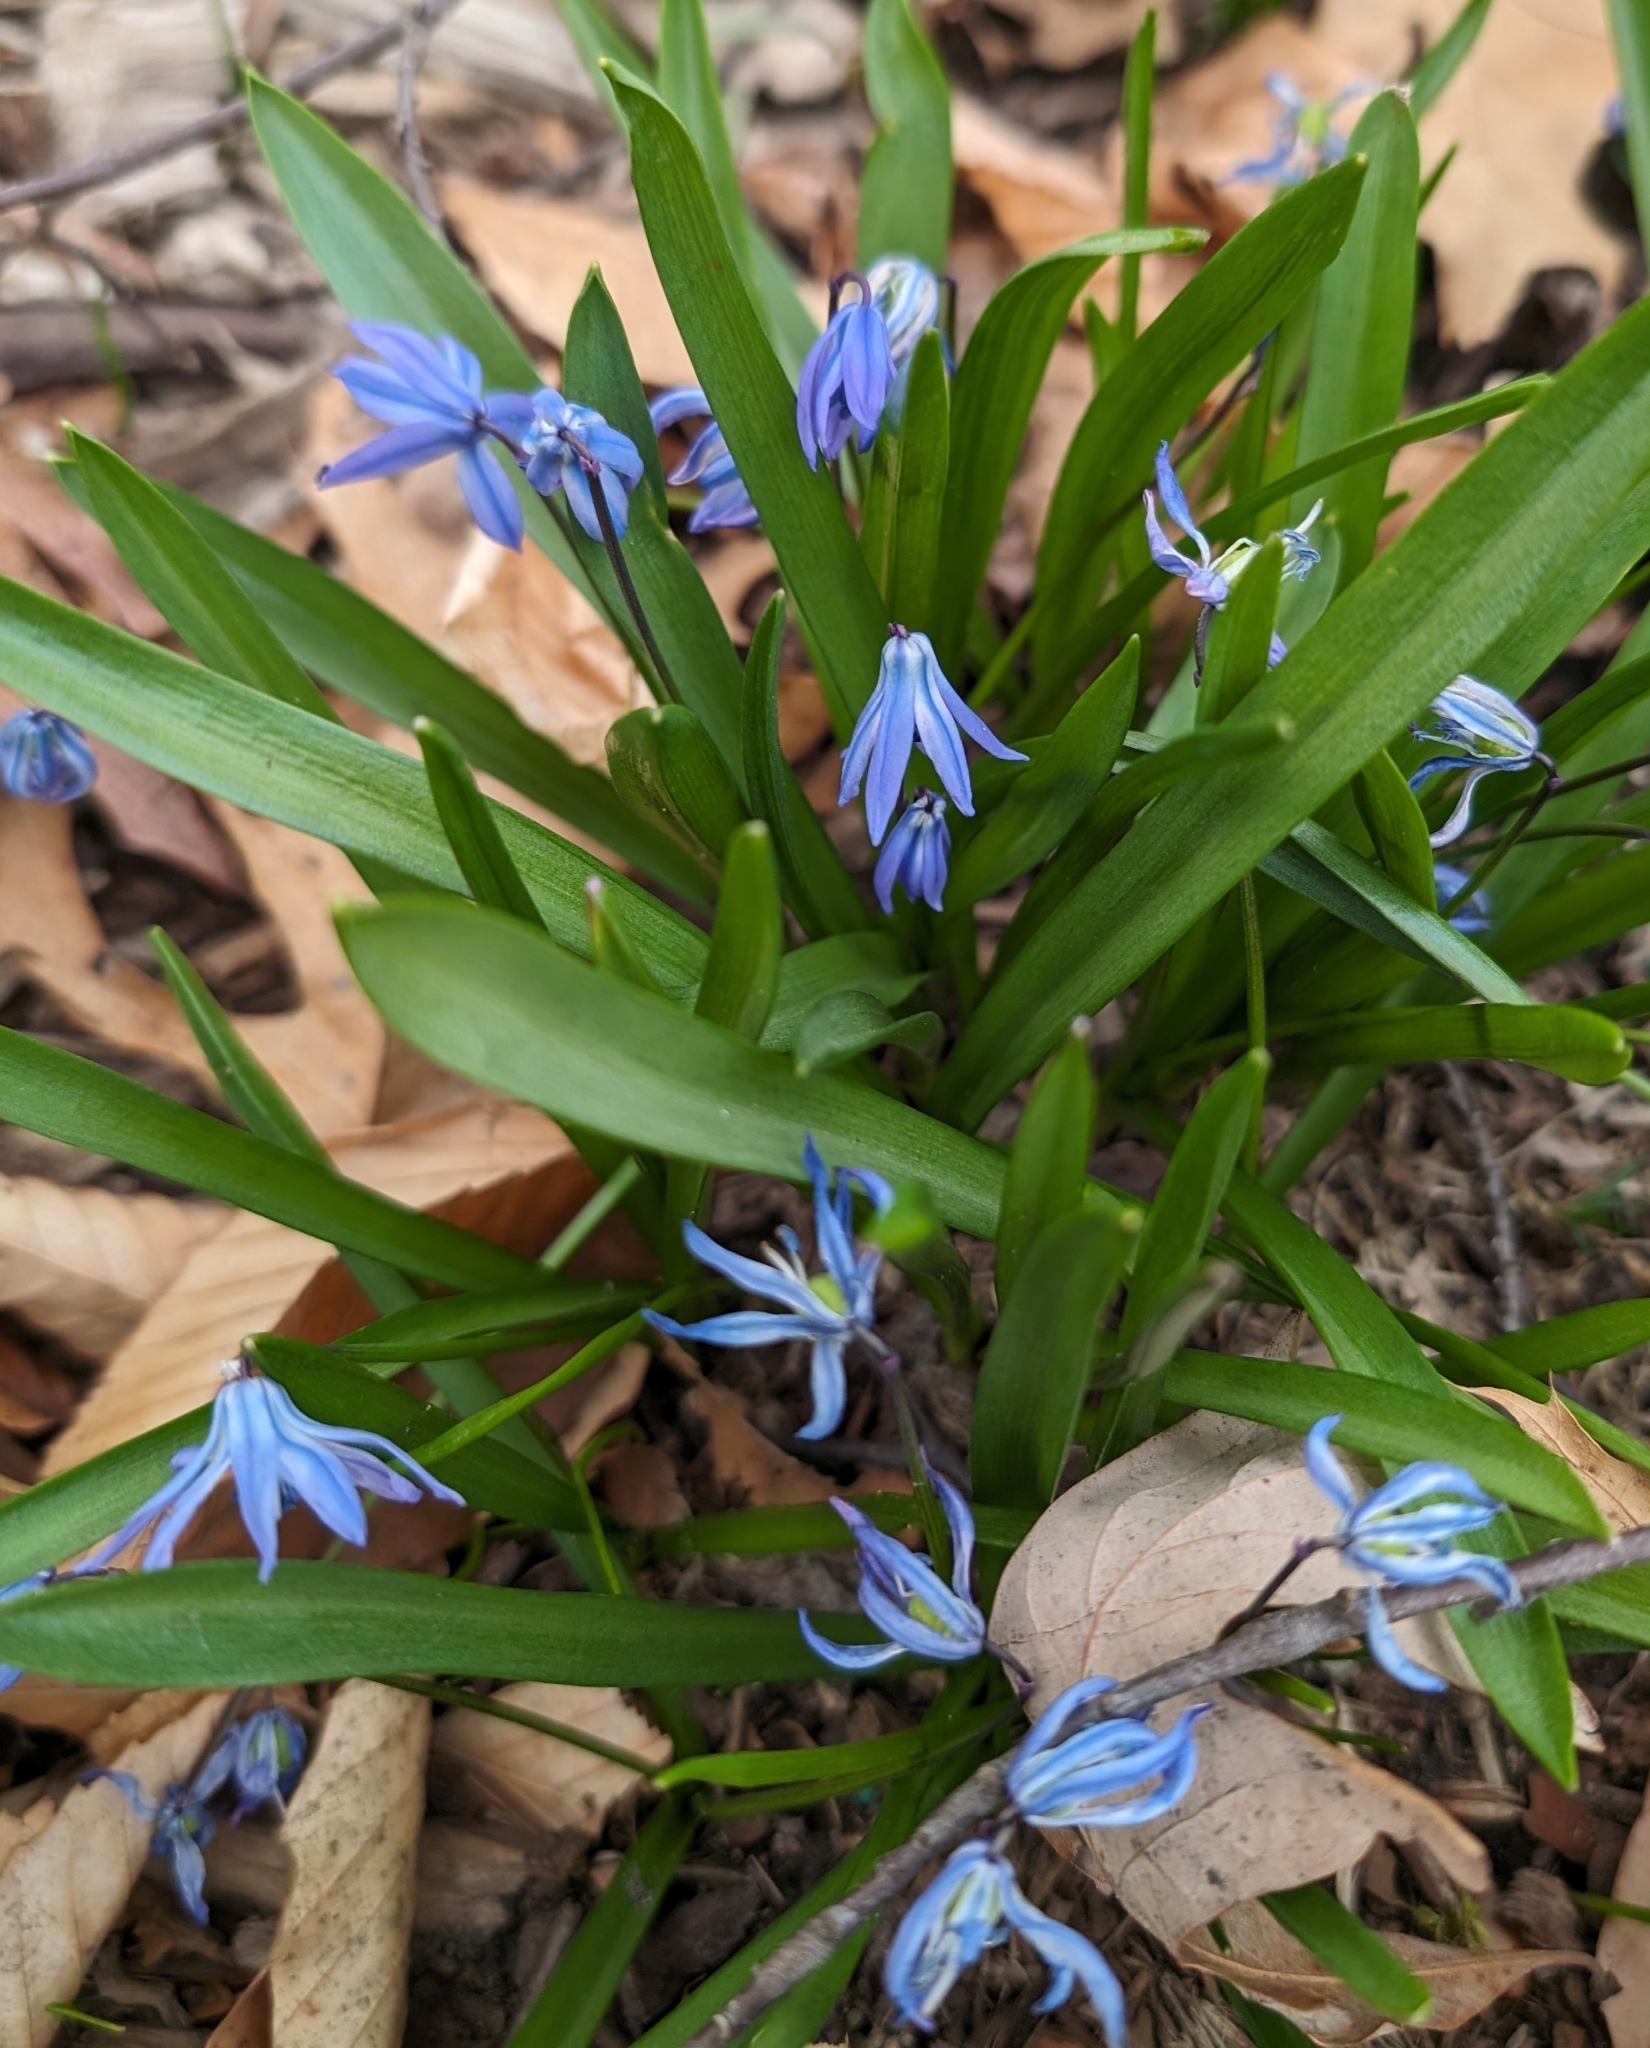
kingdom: Plantae
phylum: Tracheophyta
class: Liliopsida
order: Asparagales
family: Asparagaceae
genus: Scilla
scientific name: Scilla siberica
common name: Siberian squill
